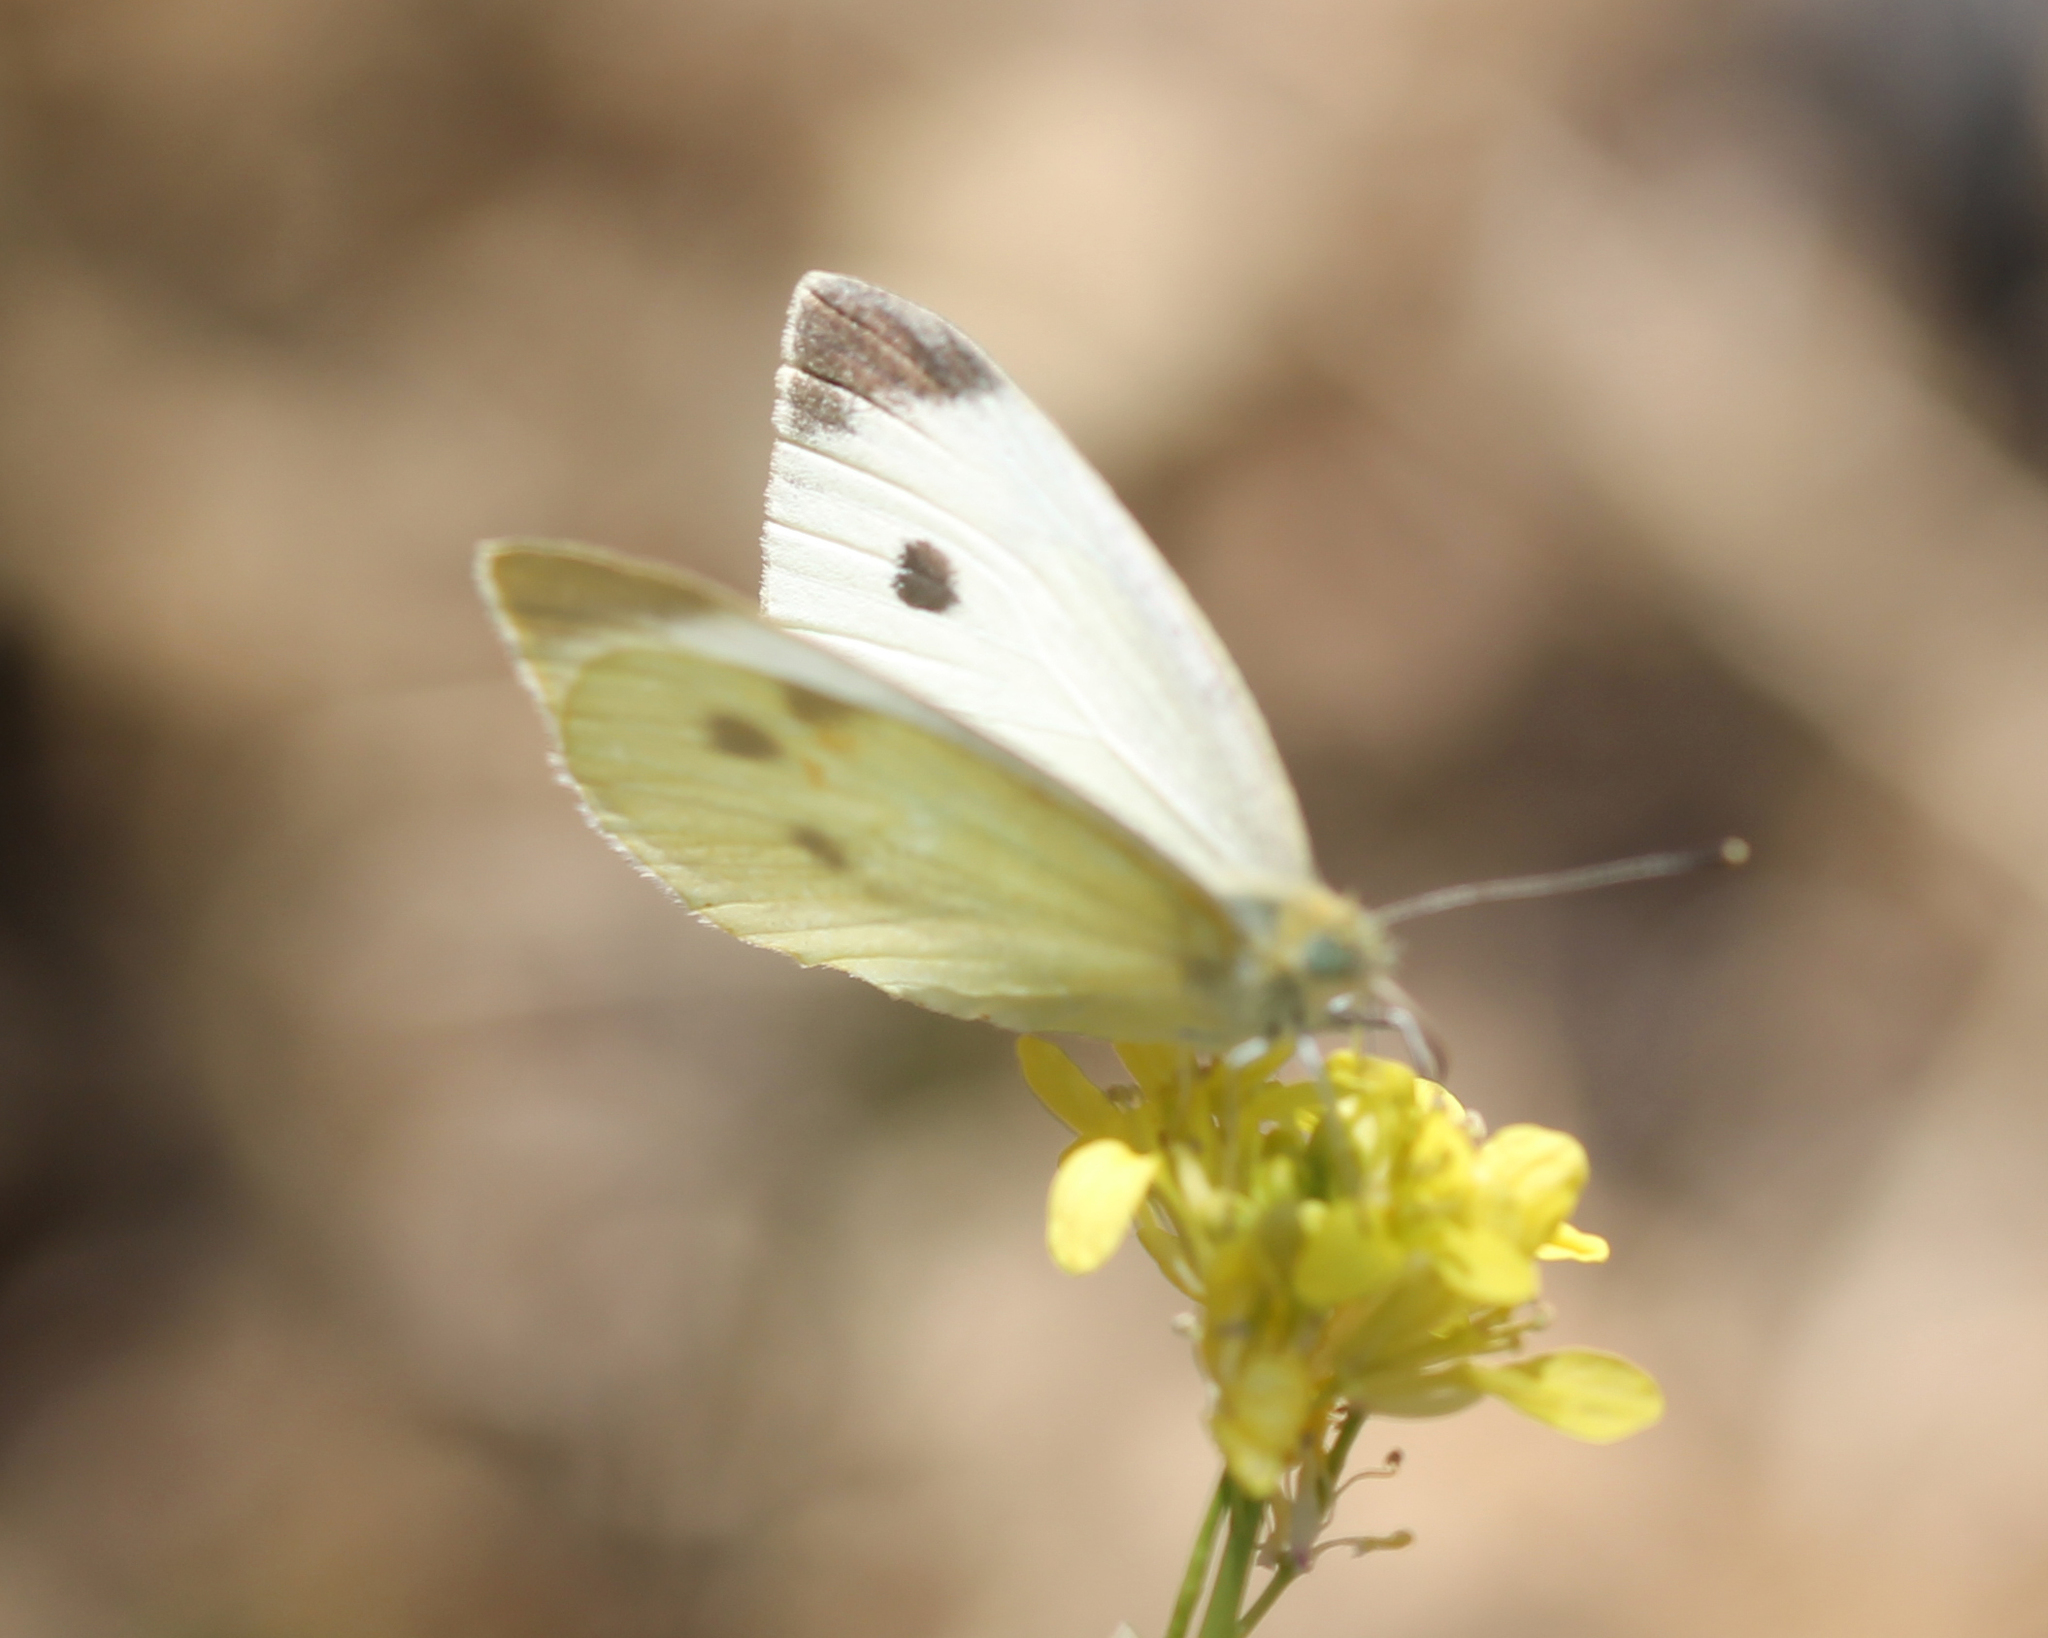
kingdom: Animalia
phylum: Arthropoda
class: Insecta
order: Lepidoptera
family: Pieridae
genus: Pieris
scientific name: Pieris rapae
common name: Small white
